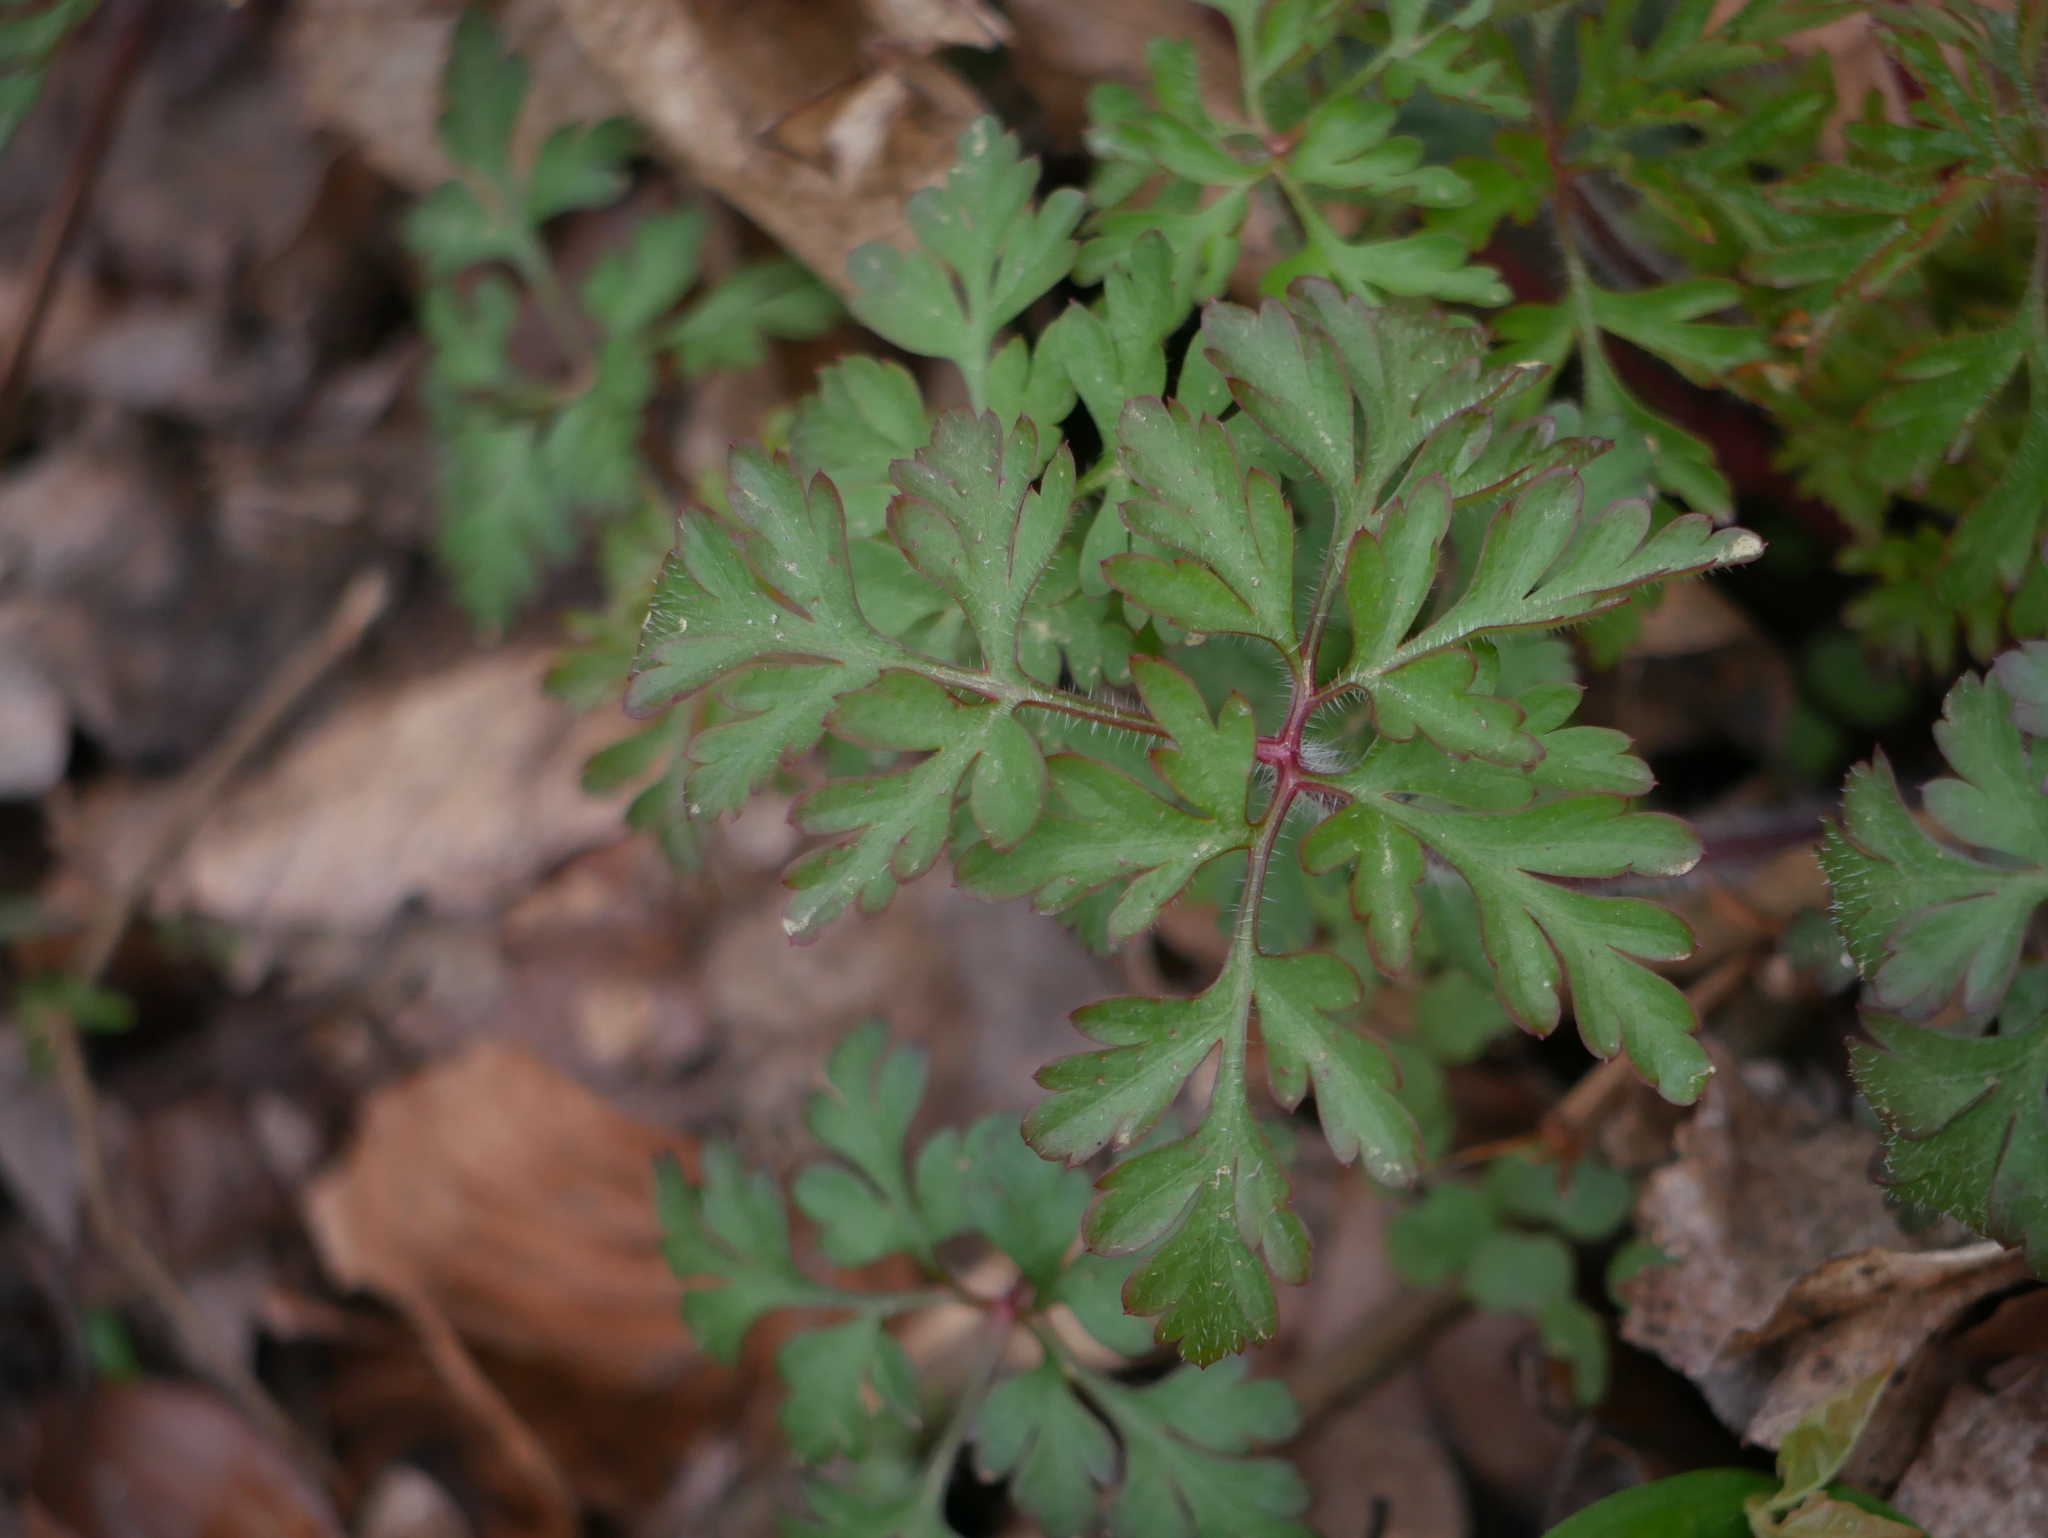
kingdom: Plantae
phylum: Tracheophyta
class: Magnoliopsida
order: Geraniales
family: Geraniaceae
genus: Geranium
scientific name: Geranium robertianum
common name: Herb-robert
